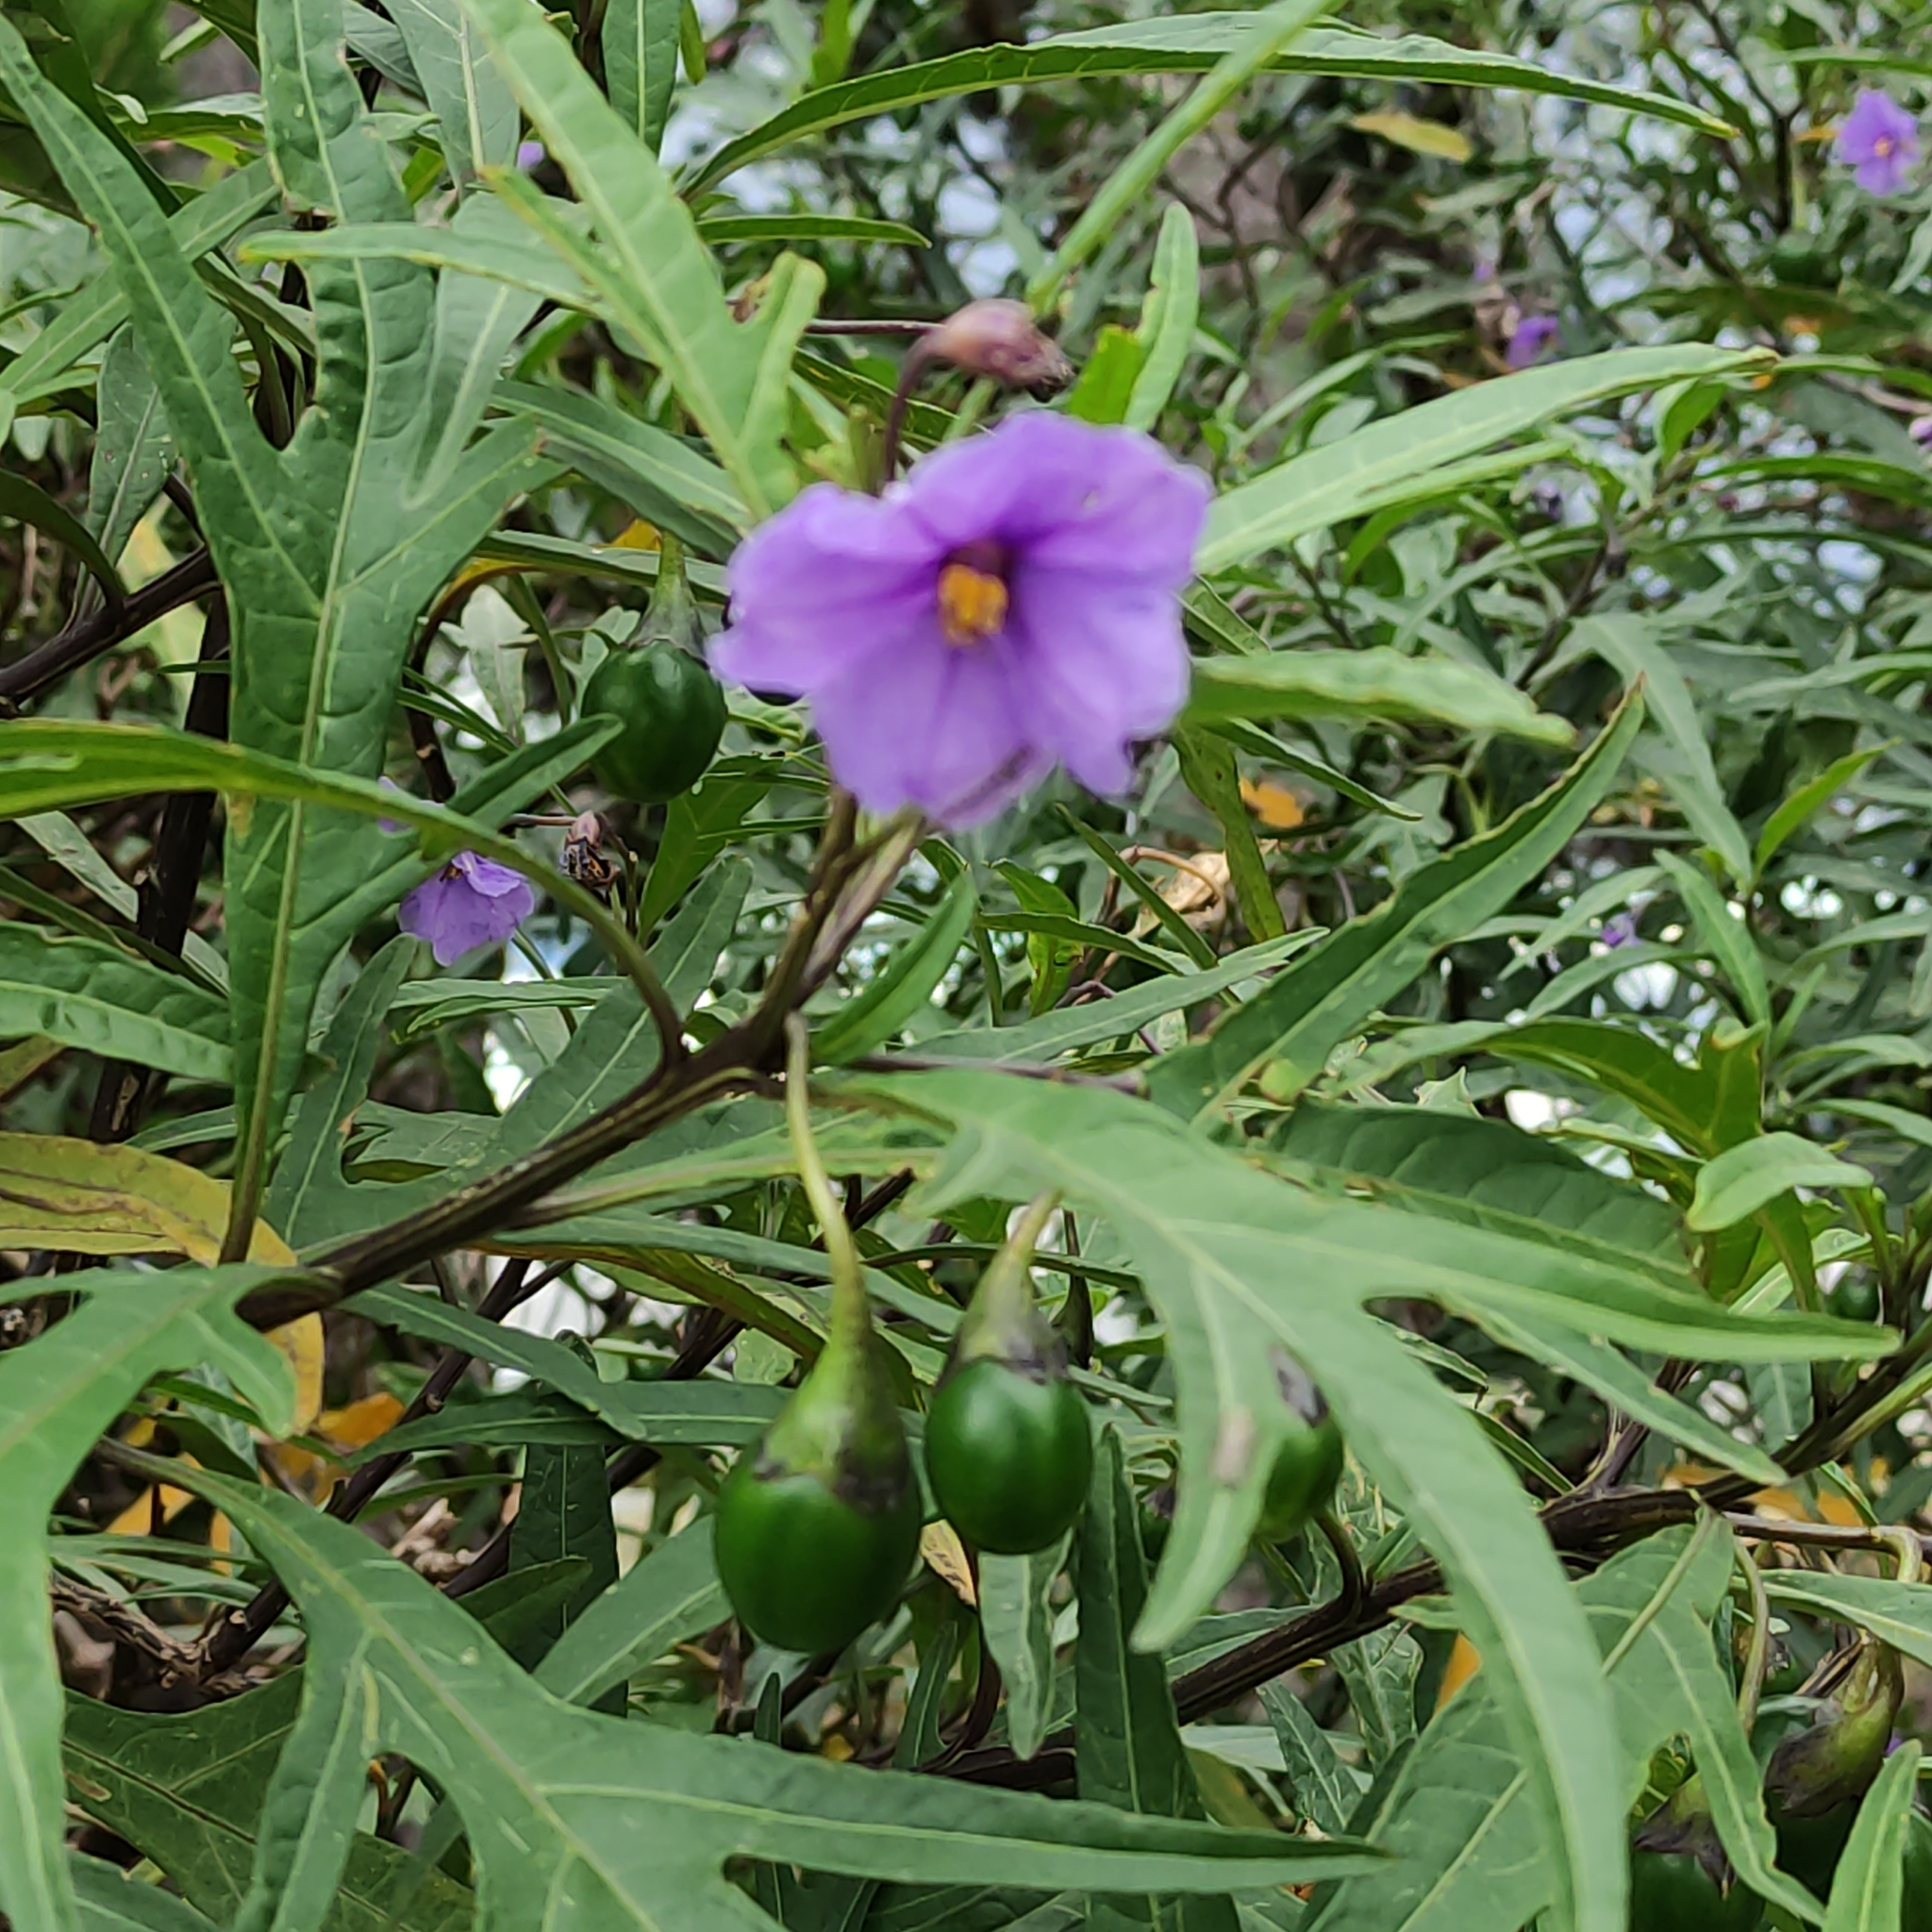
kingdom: Plantae
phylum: Tracheophyta
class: Magnoliopsida
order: Solanales
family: Solanaceae
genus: Solanum
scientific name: Solanum laciniatum
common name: Kangaroo-apple
